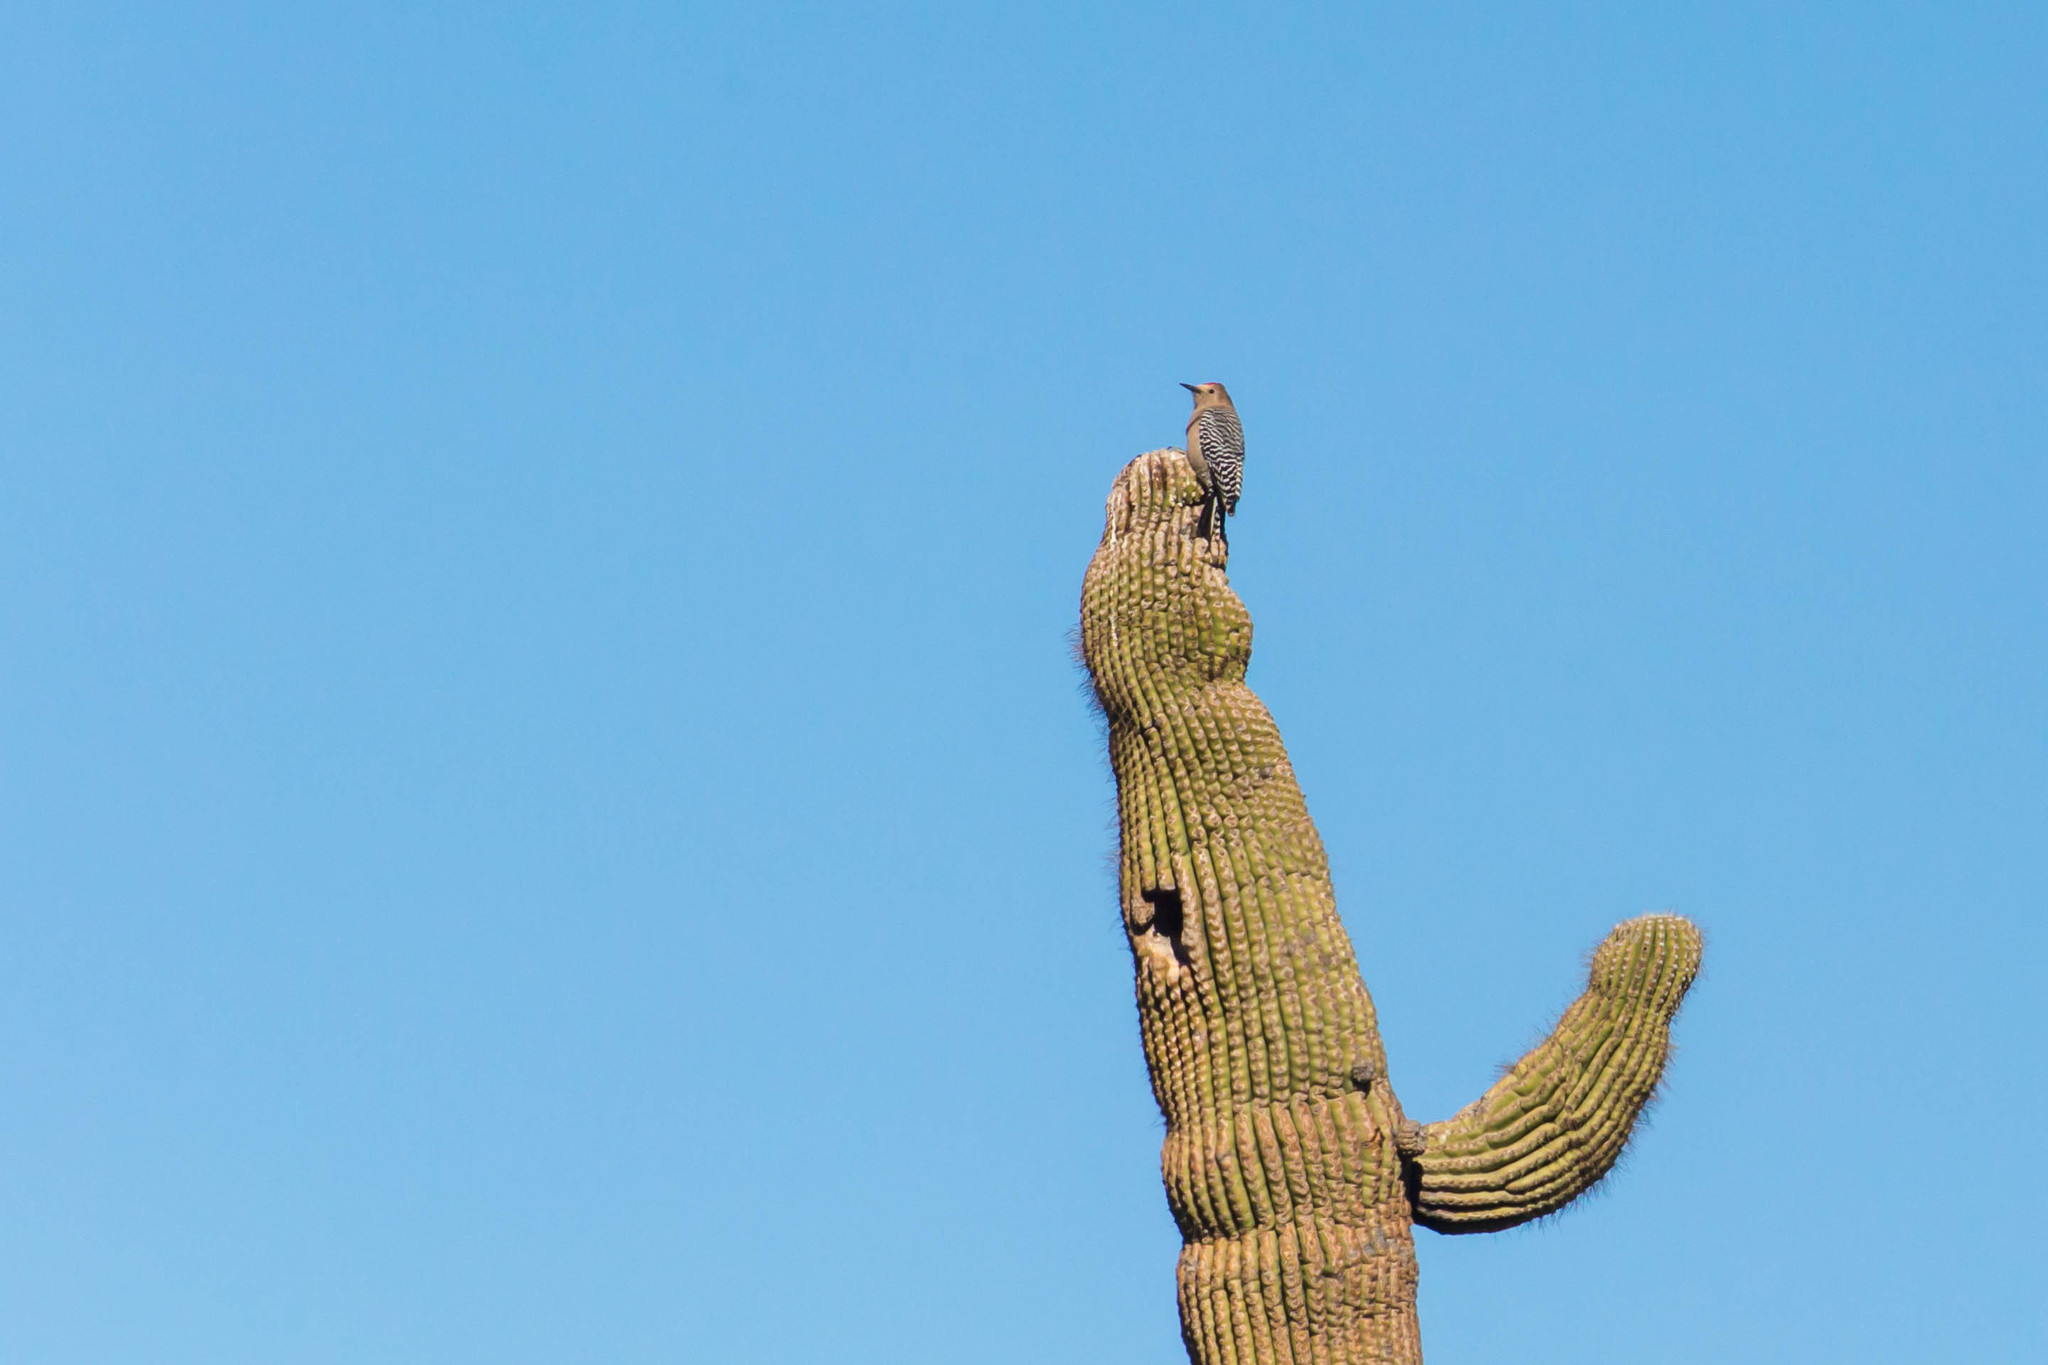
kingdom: Animalia
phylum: Chordata
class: Aves
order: Piciformes
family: Picidae
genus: Melanerpes
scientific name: Melanerpes uropygialis
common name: Gila woodpecker
